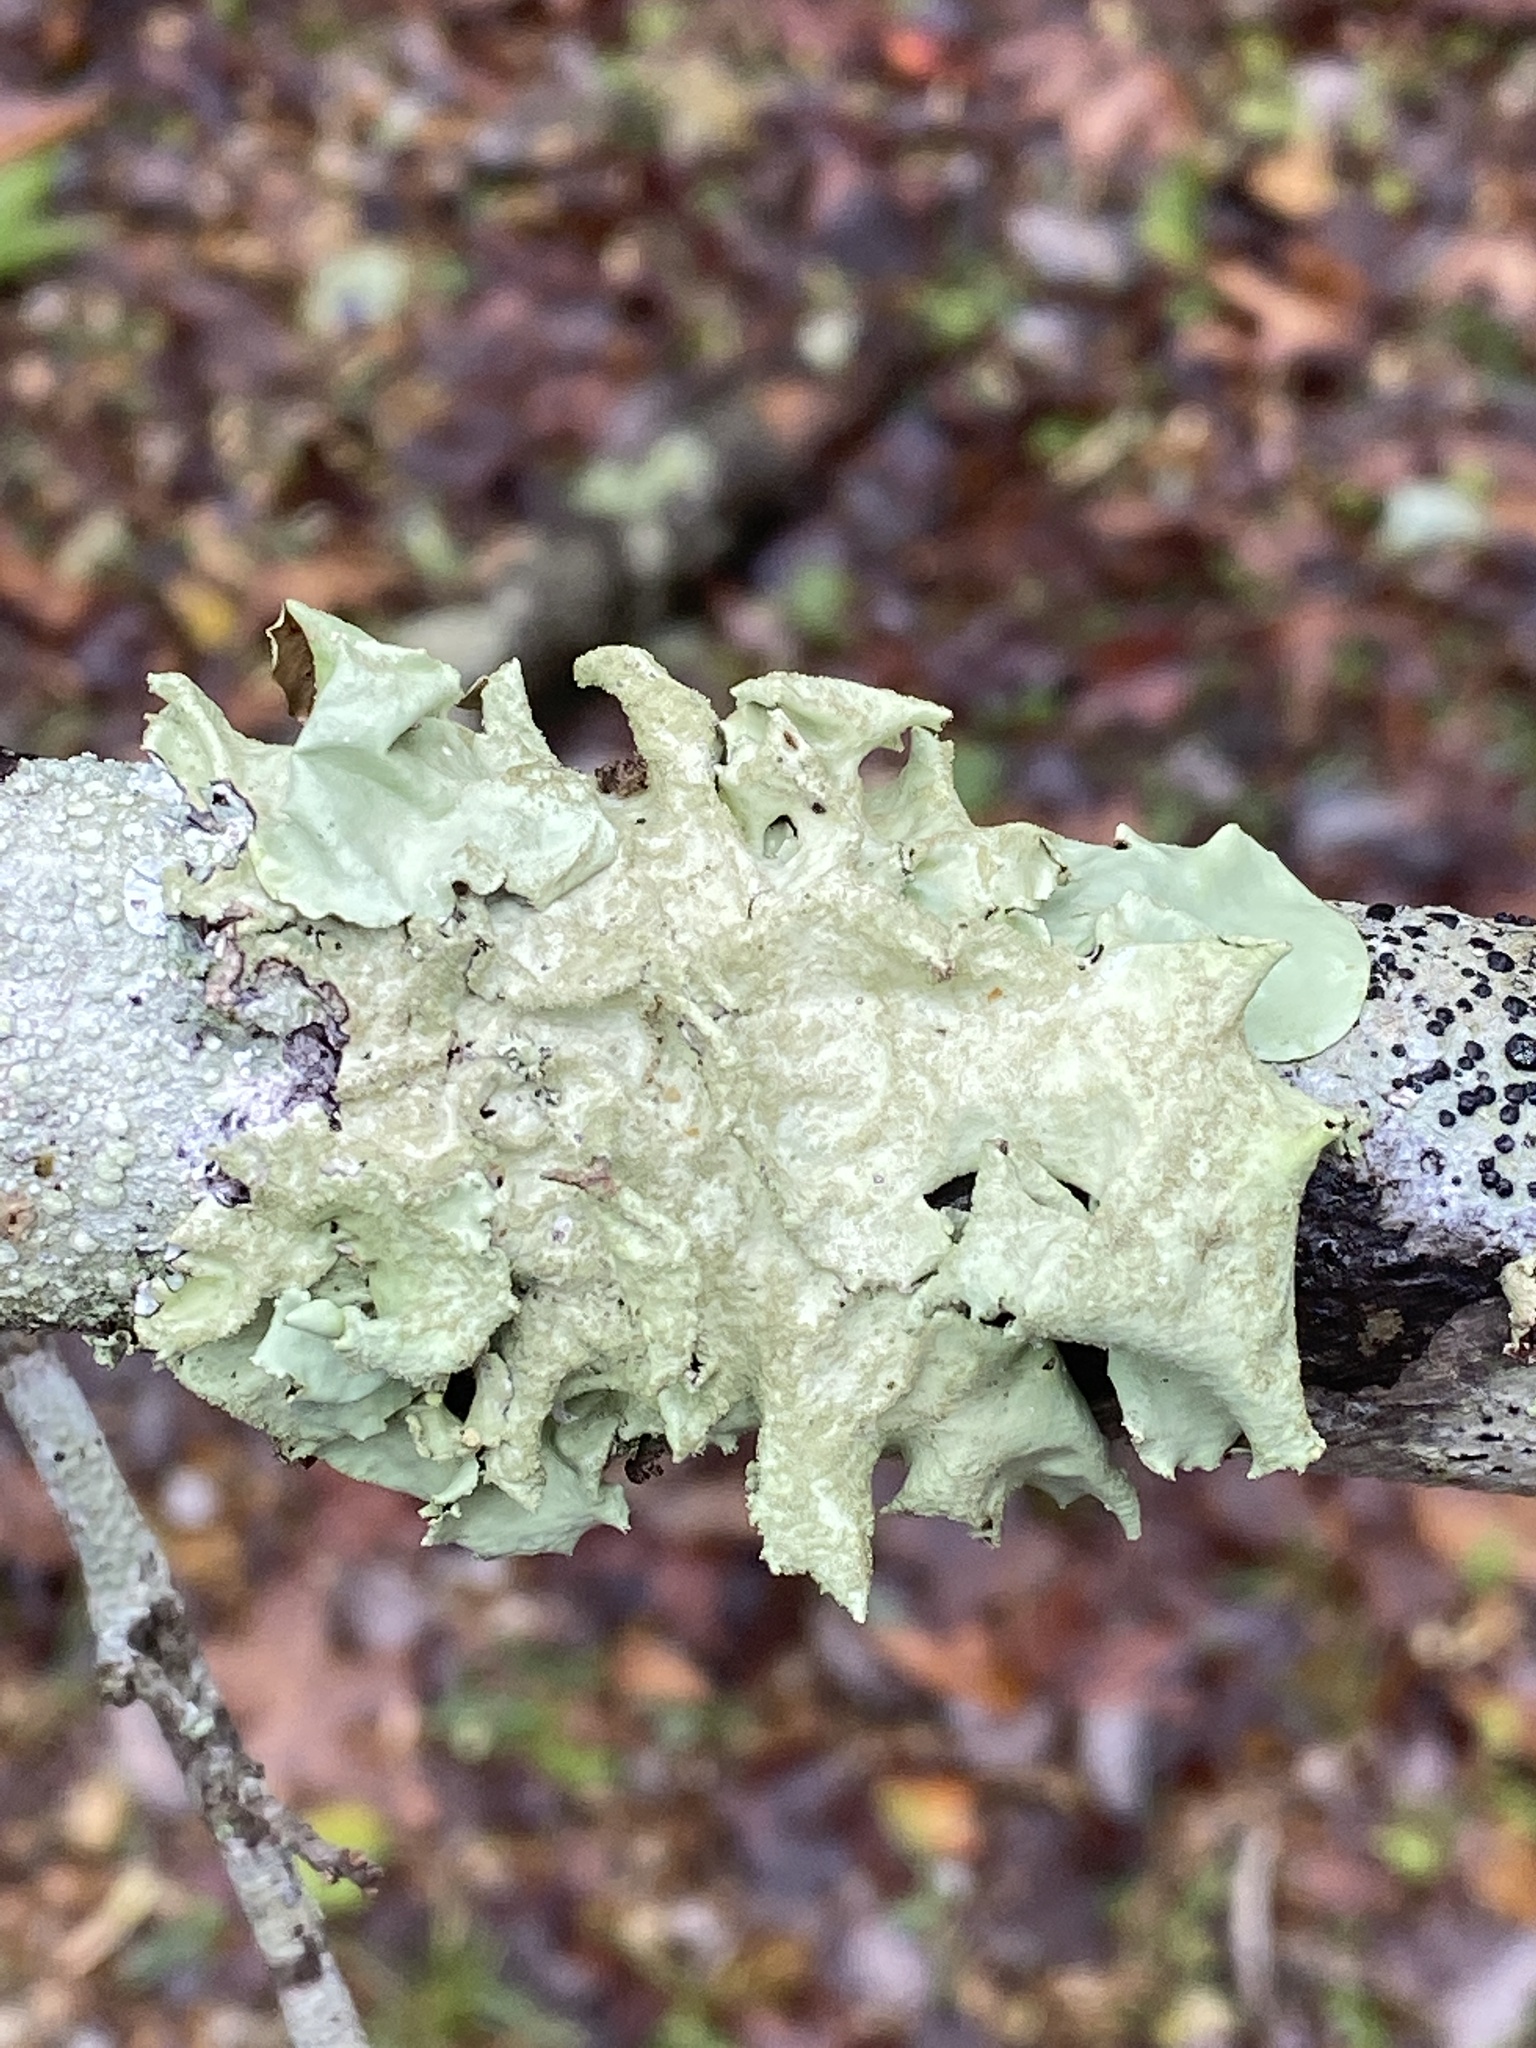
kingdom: Fungi
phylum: Ascomycota
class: Lecanoromycetes
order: Lecanorales
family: Parmeliaceae
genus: Parmotrema
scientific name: Parmotrema tinctorum
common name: Old gray ruffles
